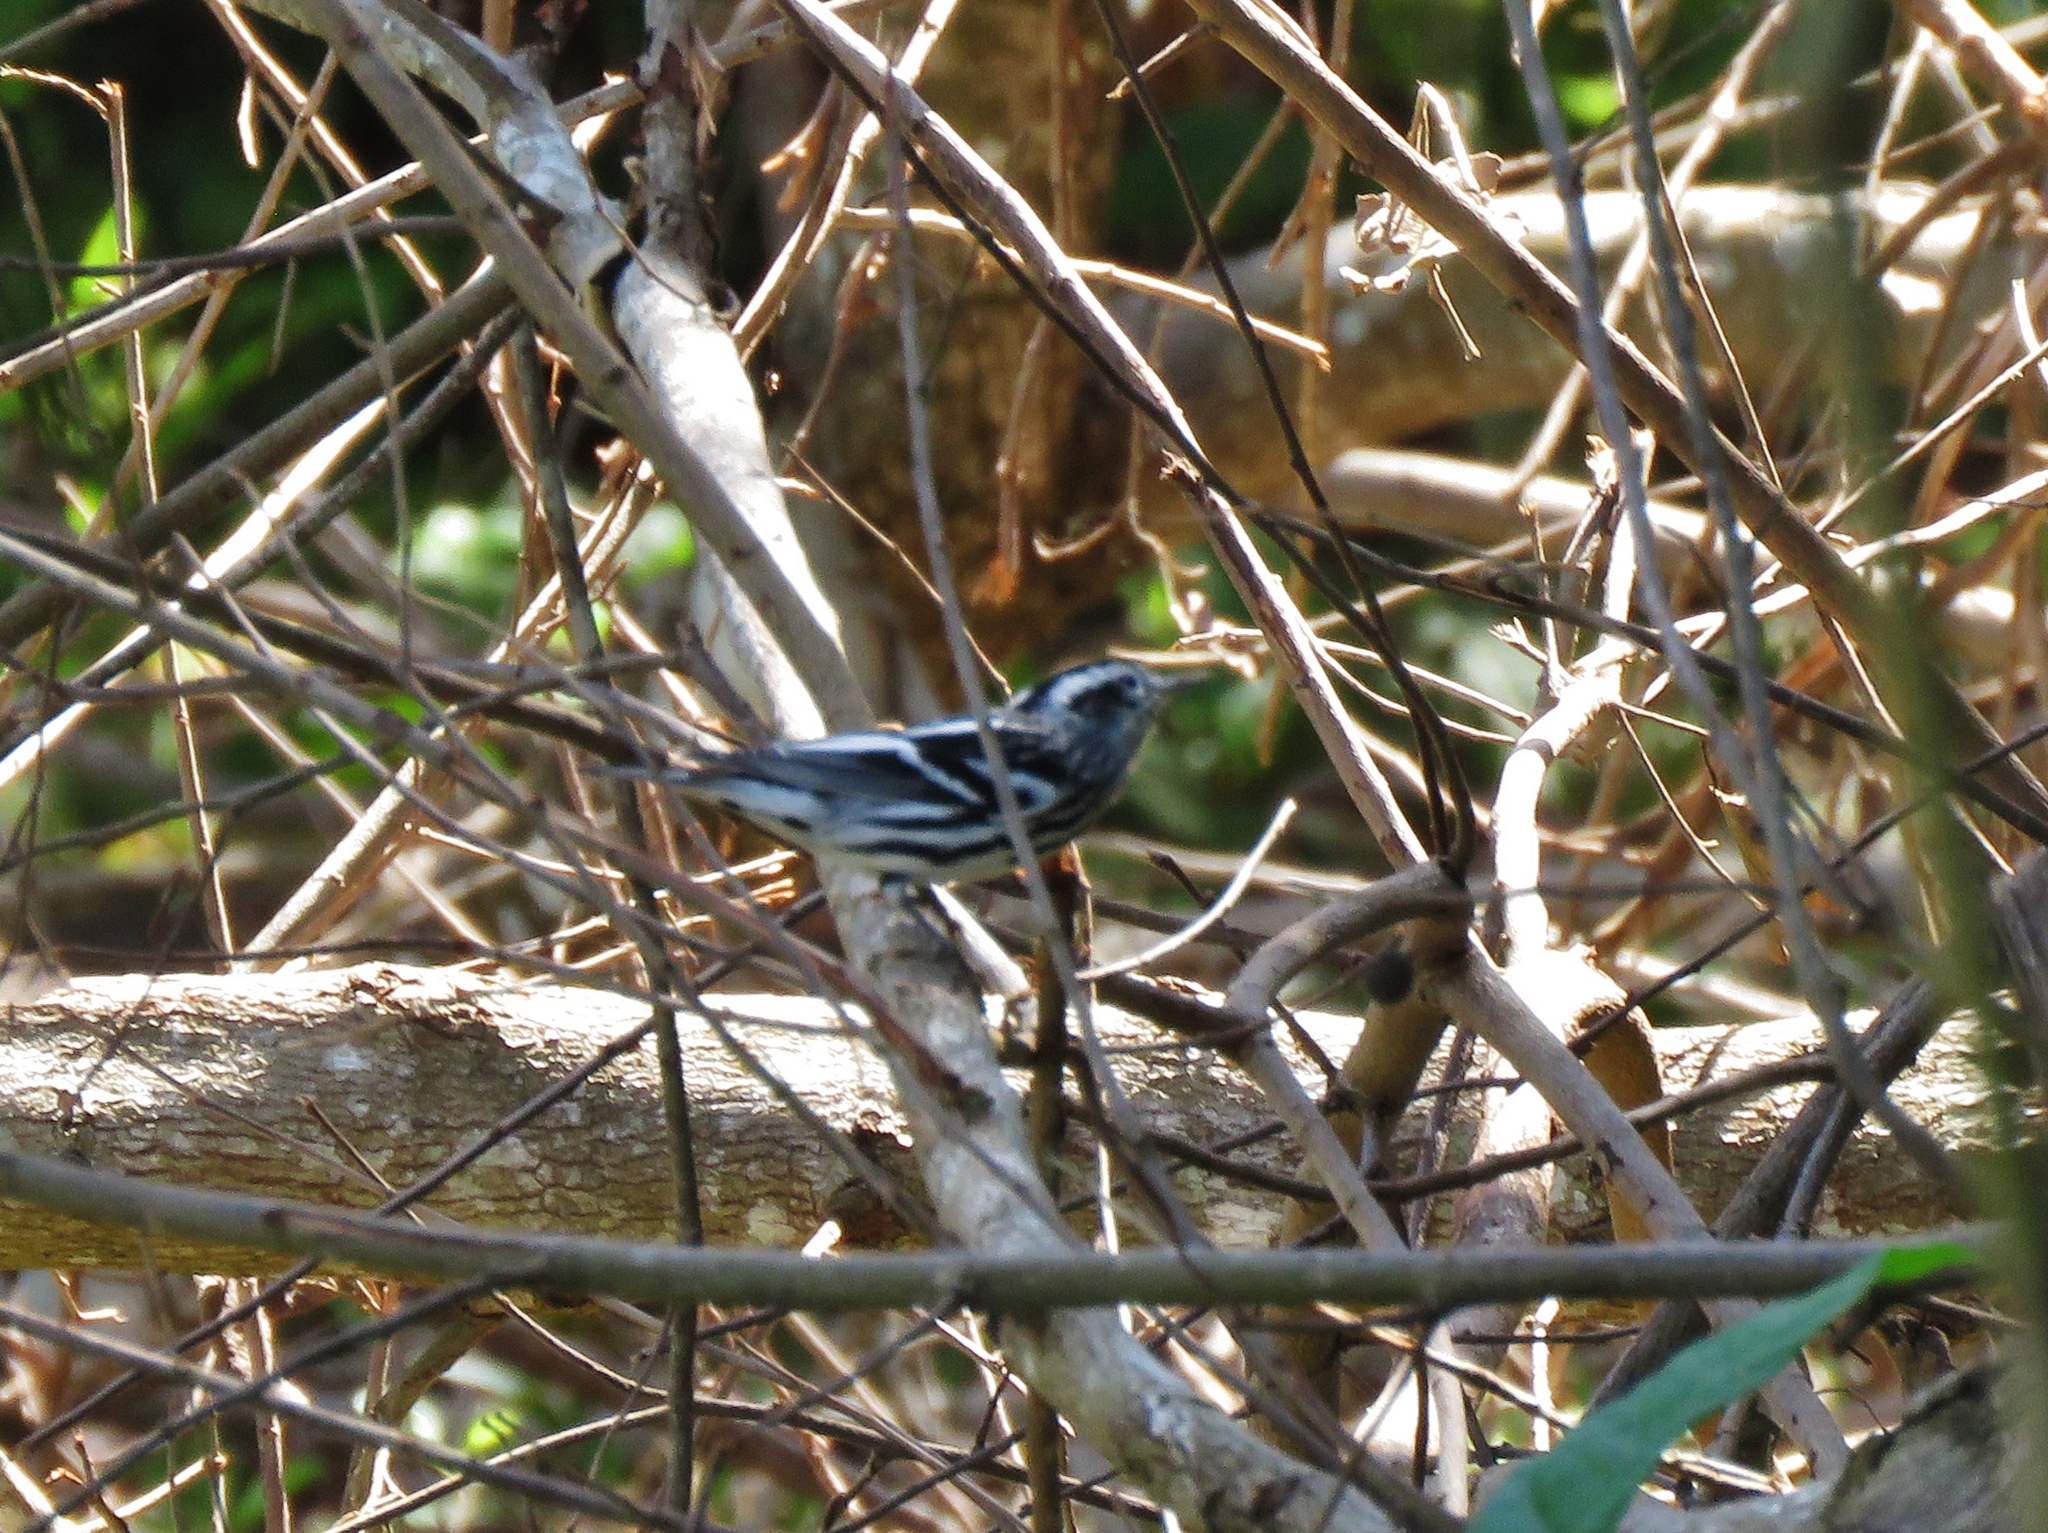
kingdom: Animalia
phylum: Chordata
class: Aves
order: Passeriformes
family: Parulidae
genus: Mniotilta
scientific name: Mniotilta varia
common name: Black-and-white warbler
